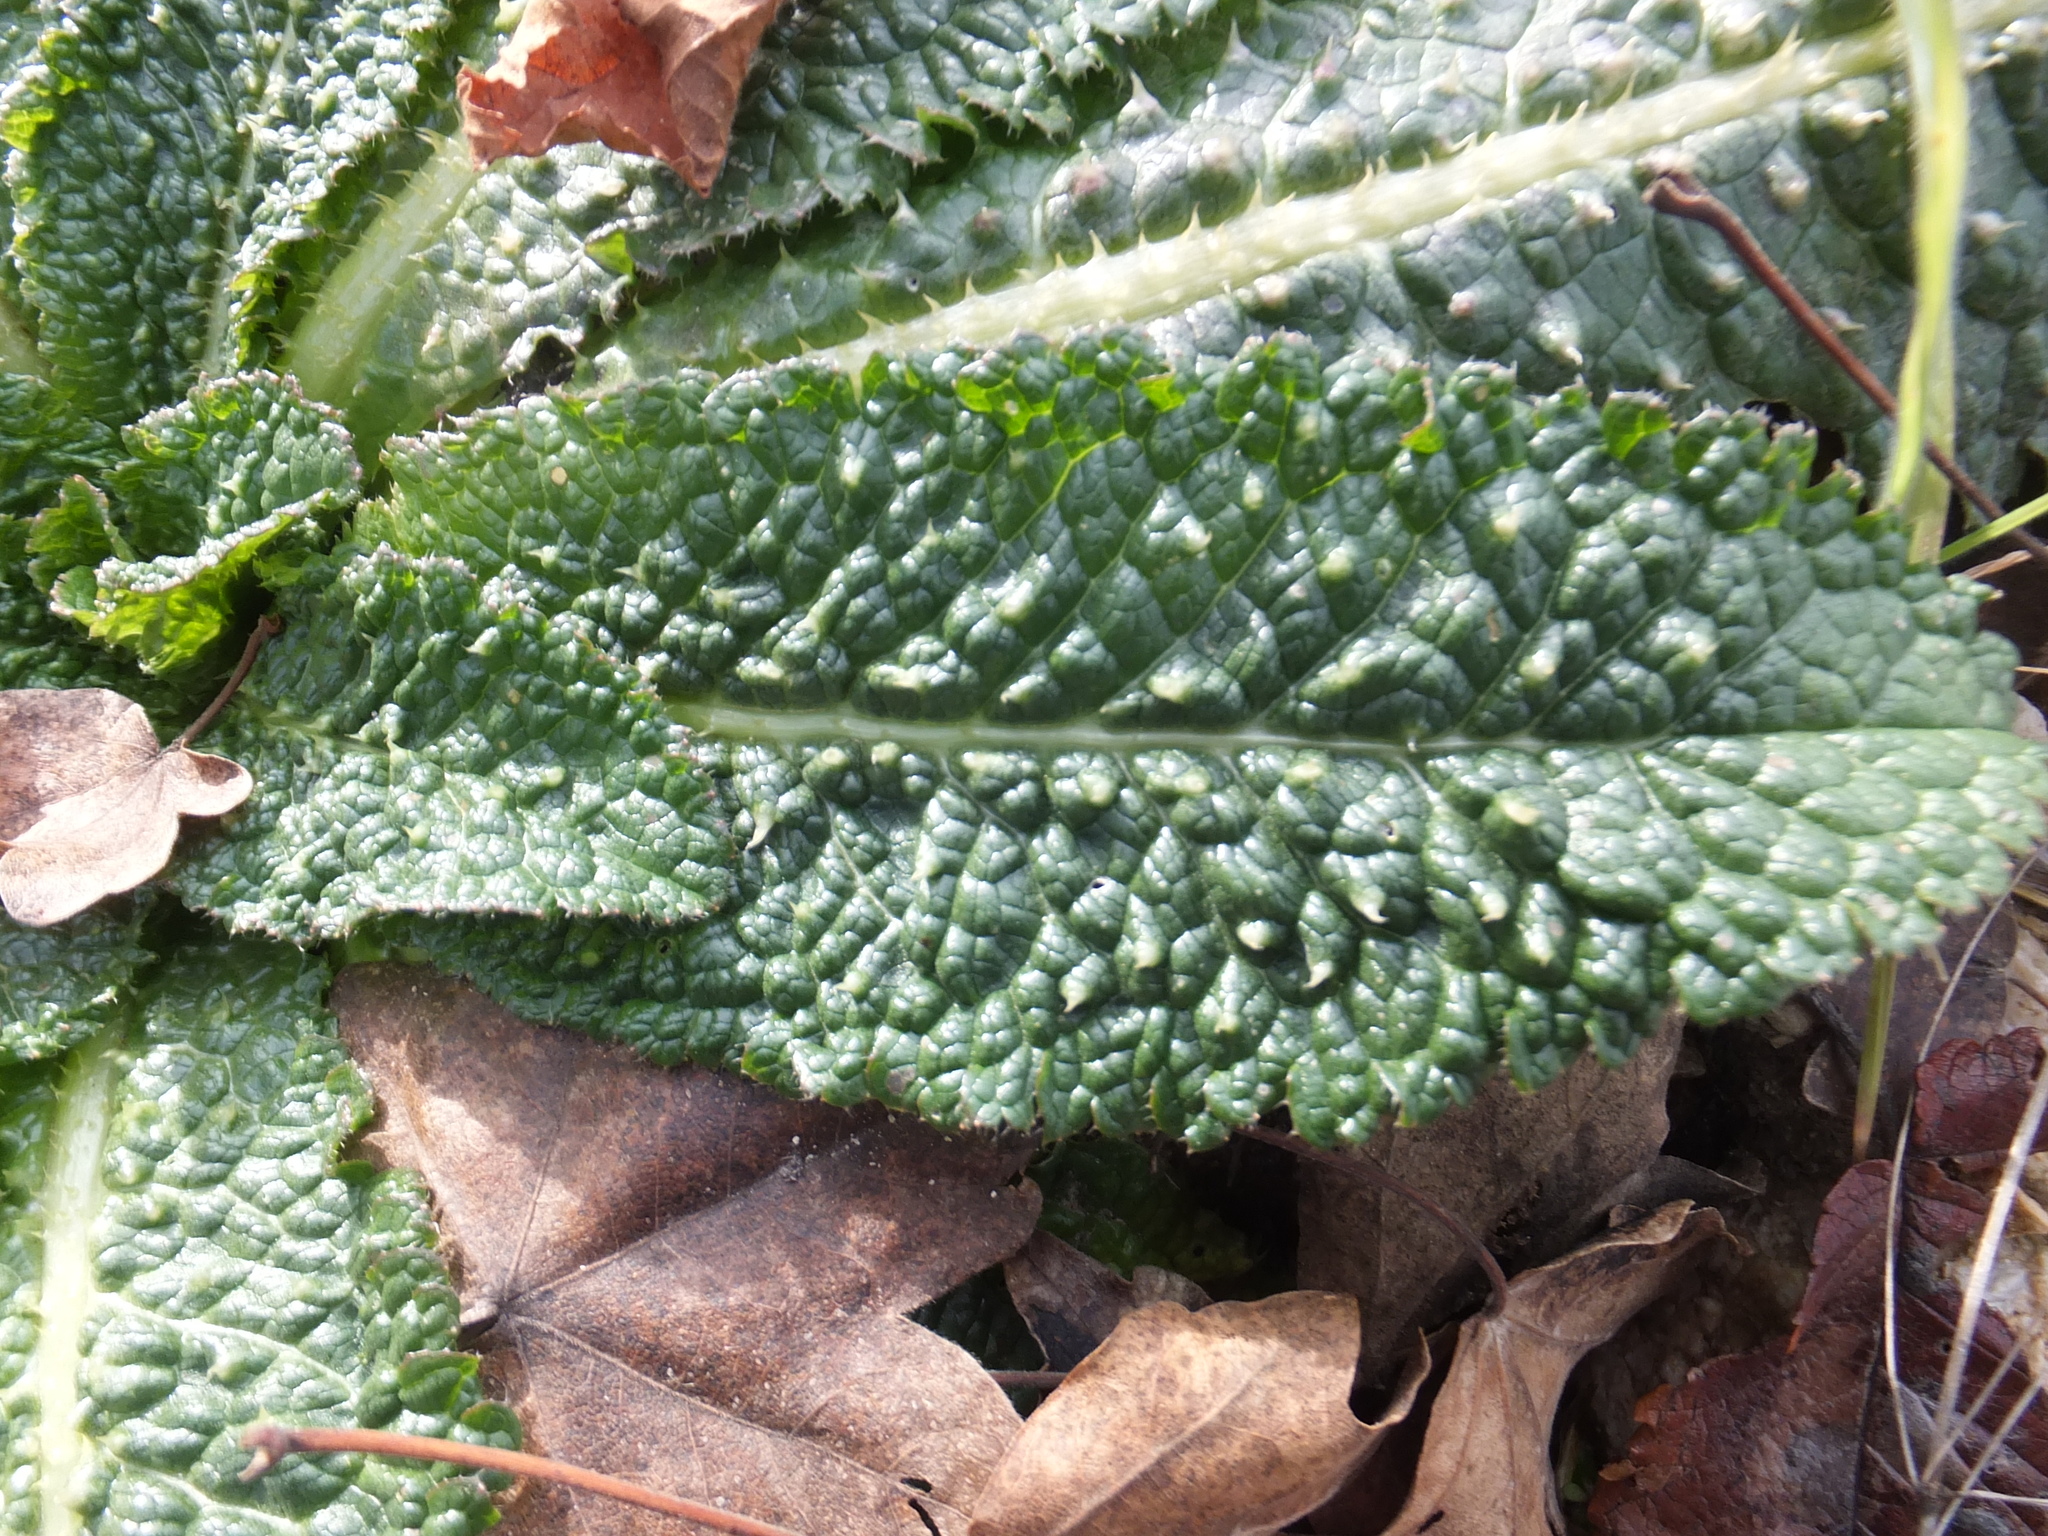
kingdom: Plantae
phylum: Tracheophyta
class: Magnoliopsida
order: Dipsacales
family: Caprifoliaceae
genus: Dipsacus
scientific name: Dipsacus fullonum
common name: Teasel
